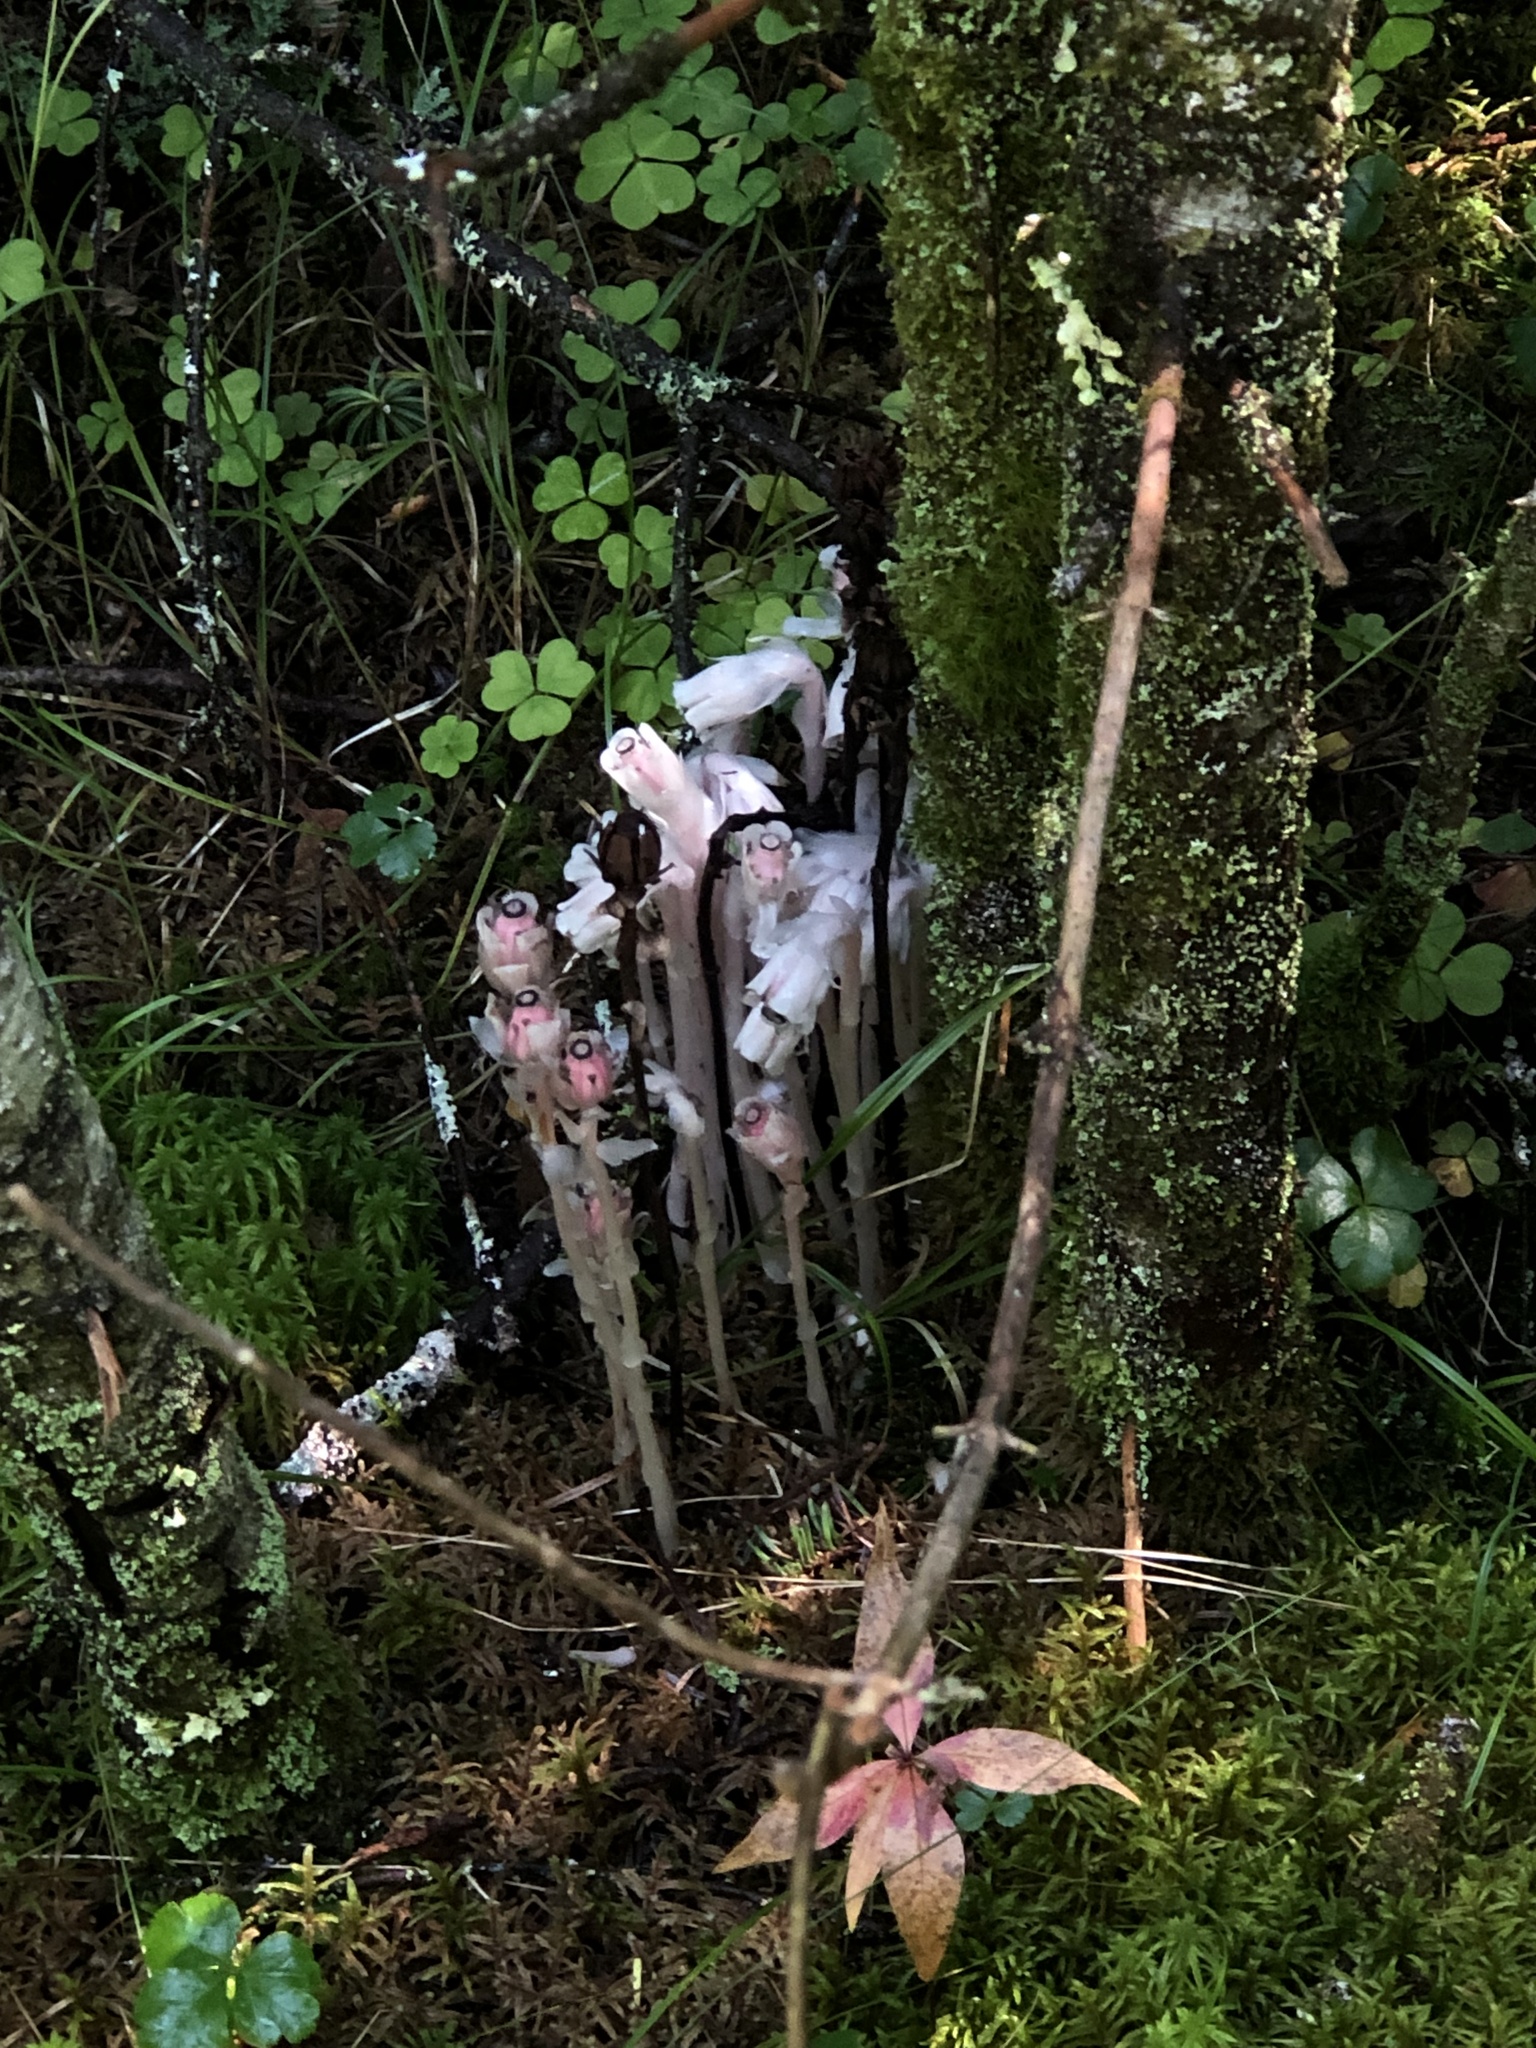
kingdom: Plantae
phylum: Tracheophyta
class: Magnoliopsida
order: Ericales
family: Ericaceae
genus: Monotropa
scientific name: Monotropa uniflora
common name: Convulsion root
